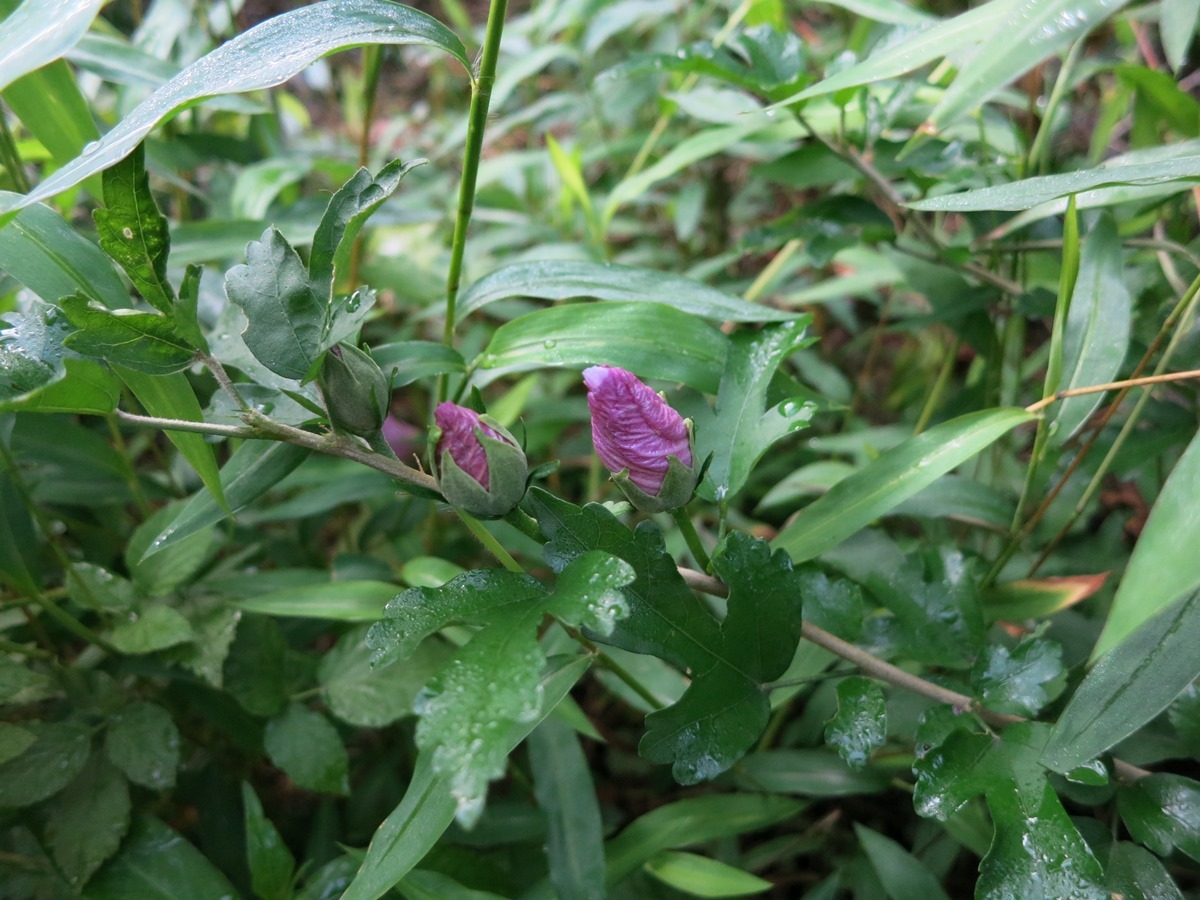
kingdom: Plantae
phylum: Tracheophyta
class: Magnoliopsida
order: Malvales
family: Malvaceae
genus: Hibiscus
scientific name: Hibiscus syriacus
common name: Syrian ketmia
